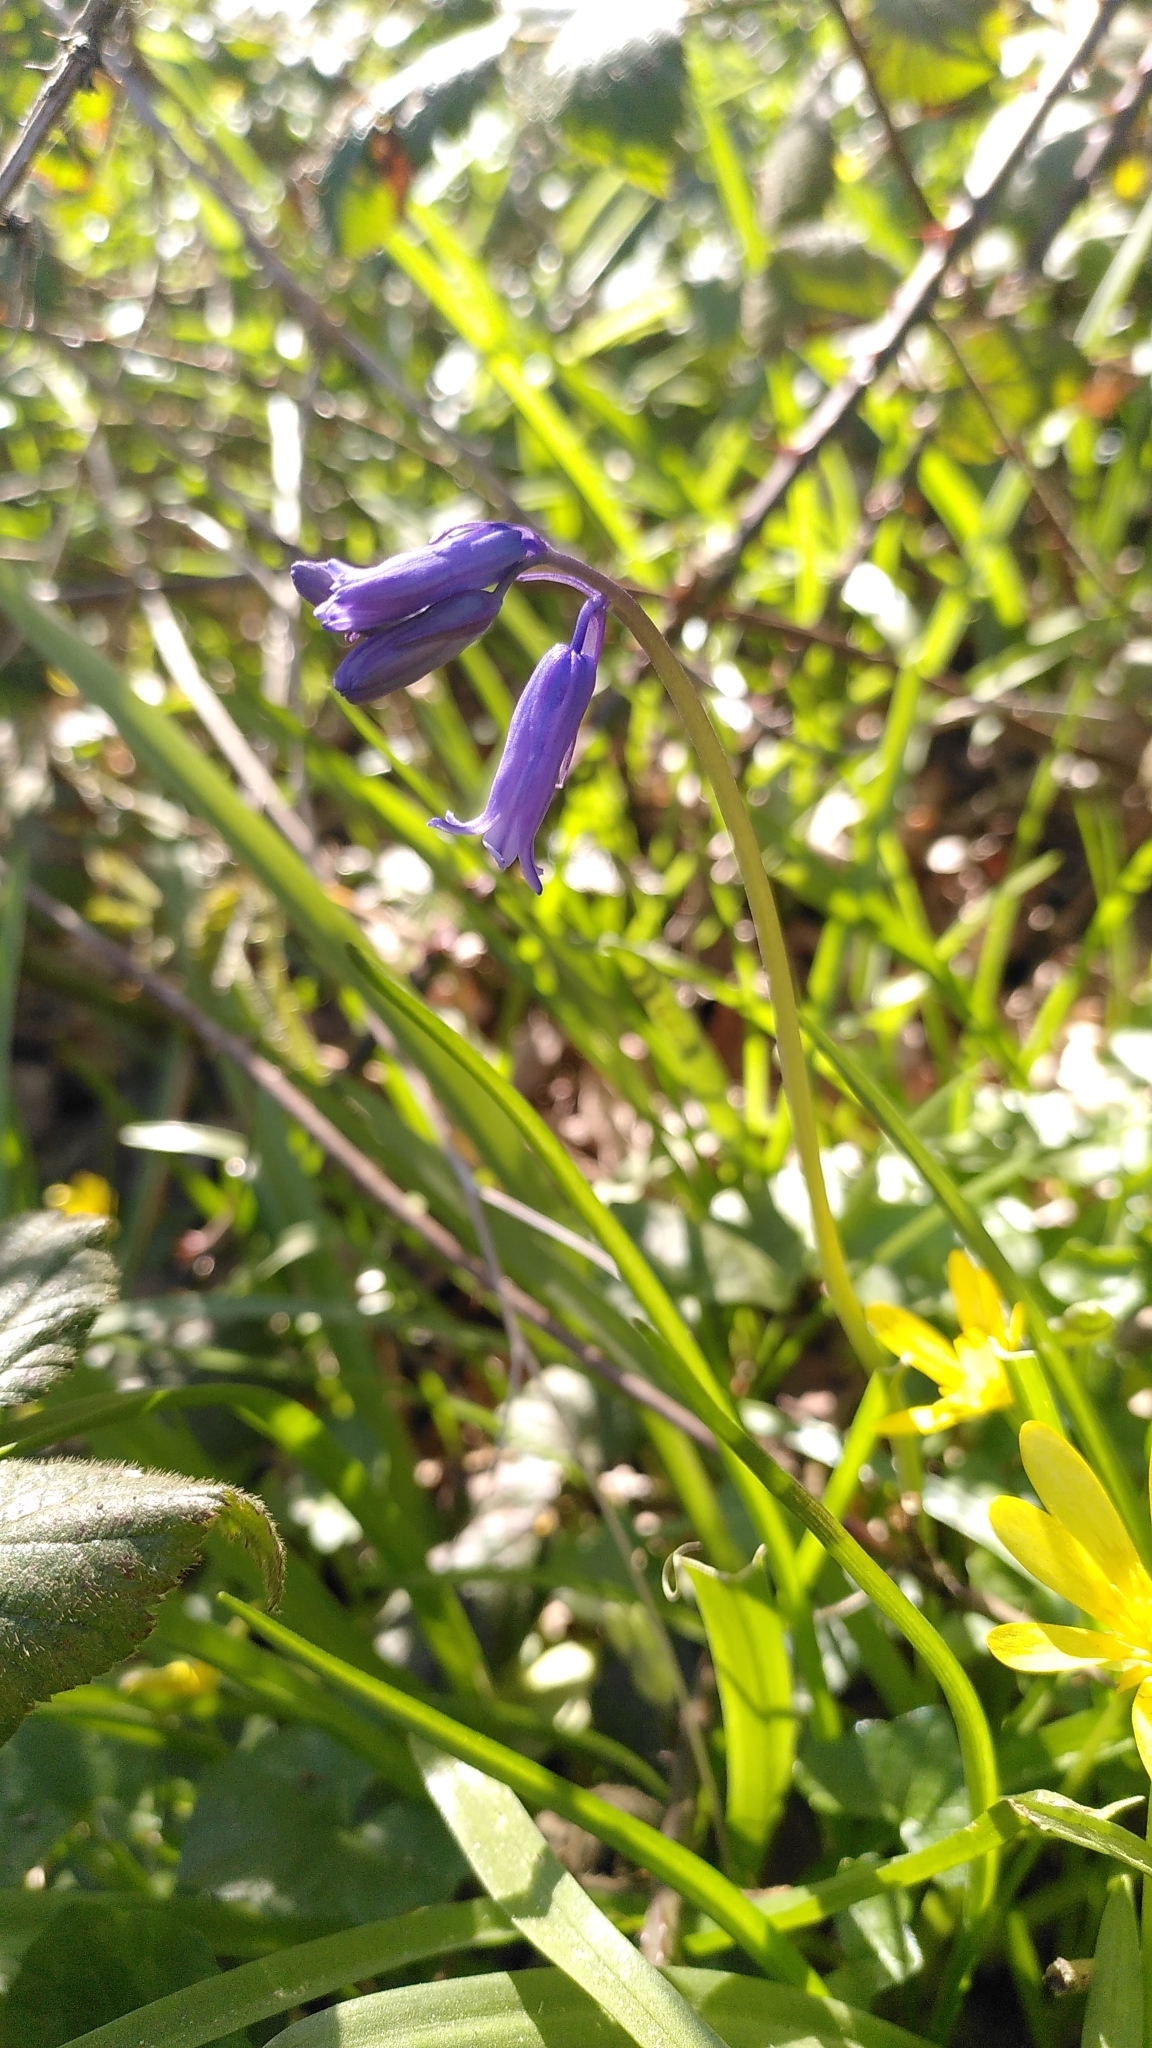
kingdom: Plantae
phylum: Tracheophyta
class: Liliopsida
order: Asparagales
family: Asparagaceae
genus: Hyacinthoides
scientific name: Hyacinthoides non-scripta
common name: Bluebell
